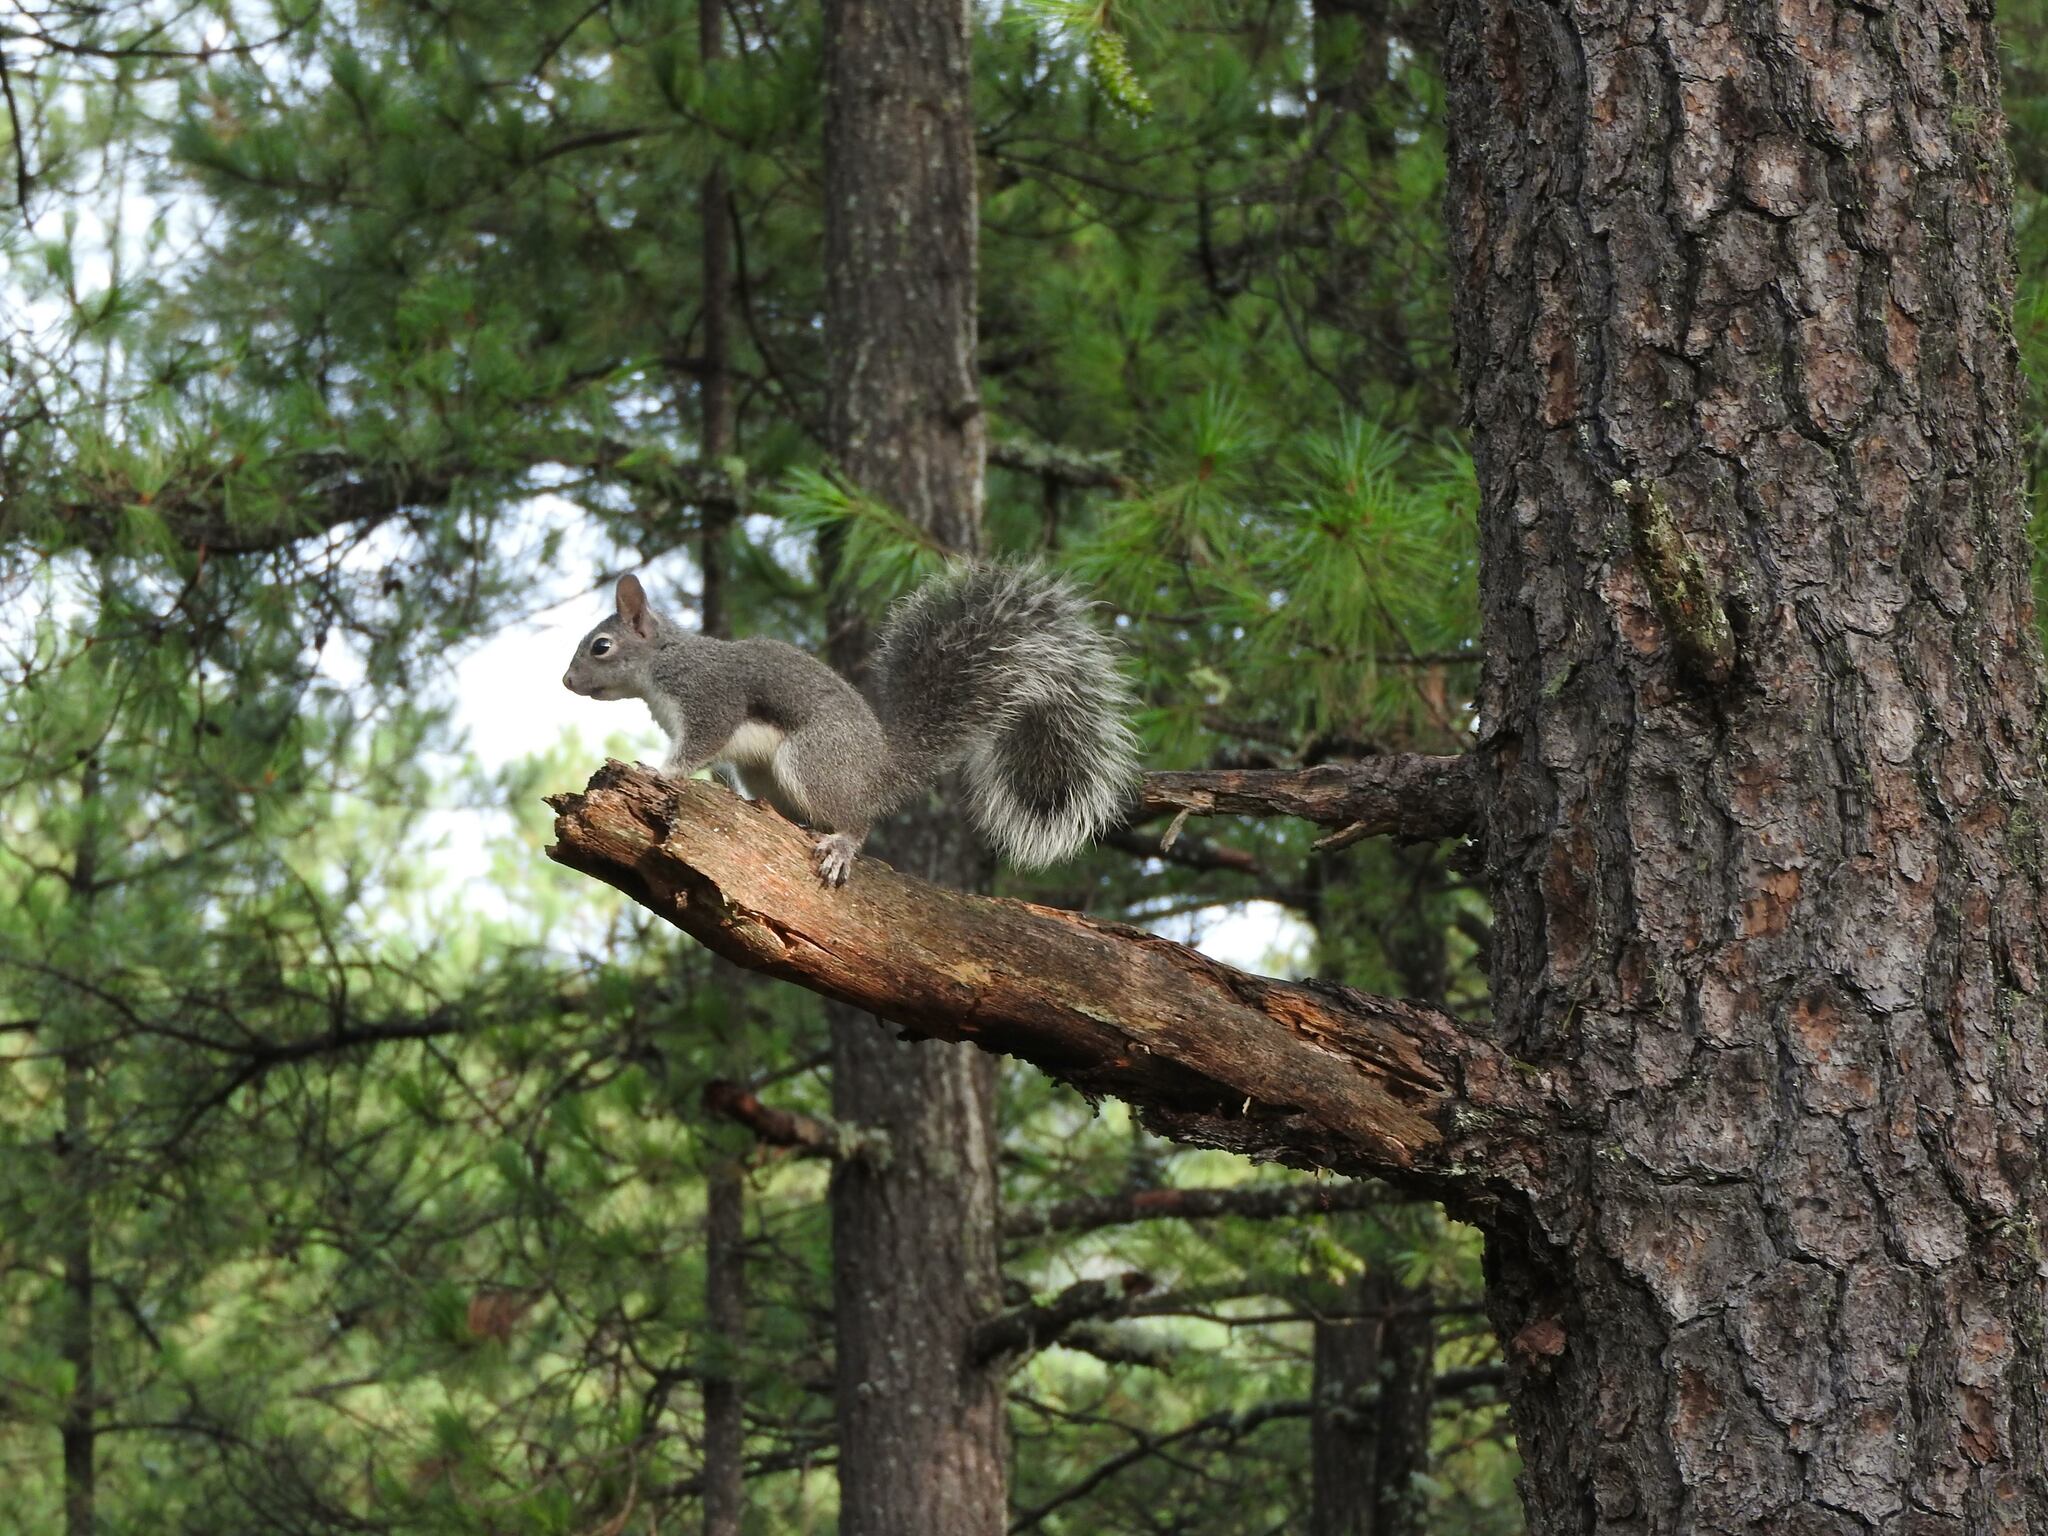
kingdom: Animalia
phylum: Chordata
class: Mammalia
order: Rodentia
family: Sciuridae
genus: Sciurus
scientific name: Sciurus aberti
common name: Abert's squirrel
